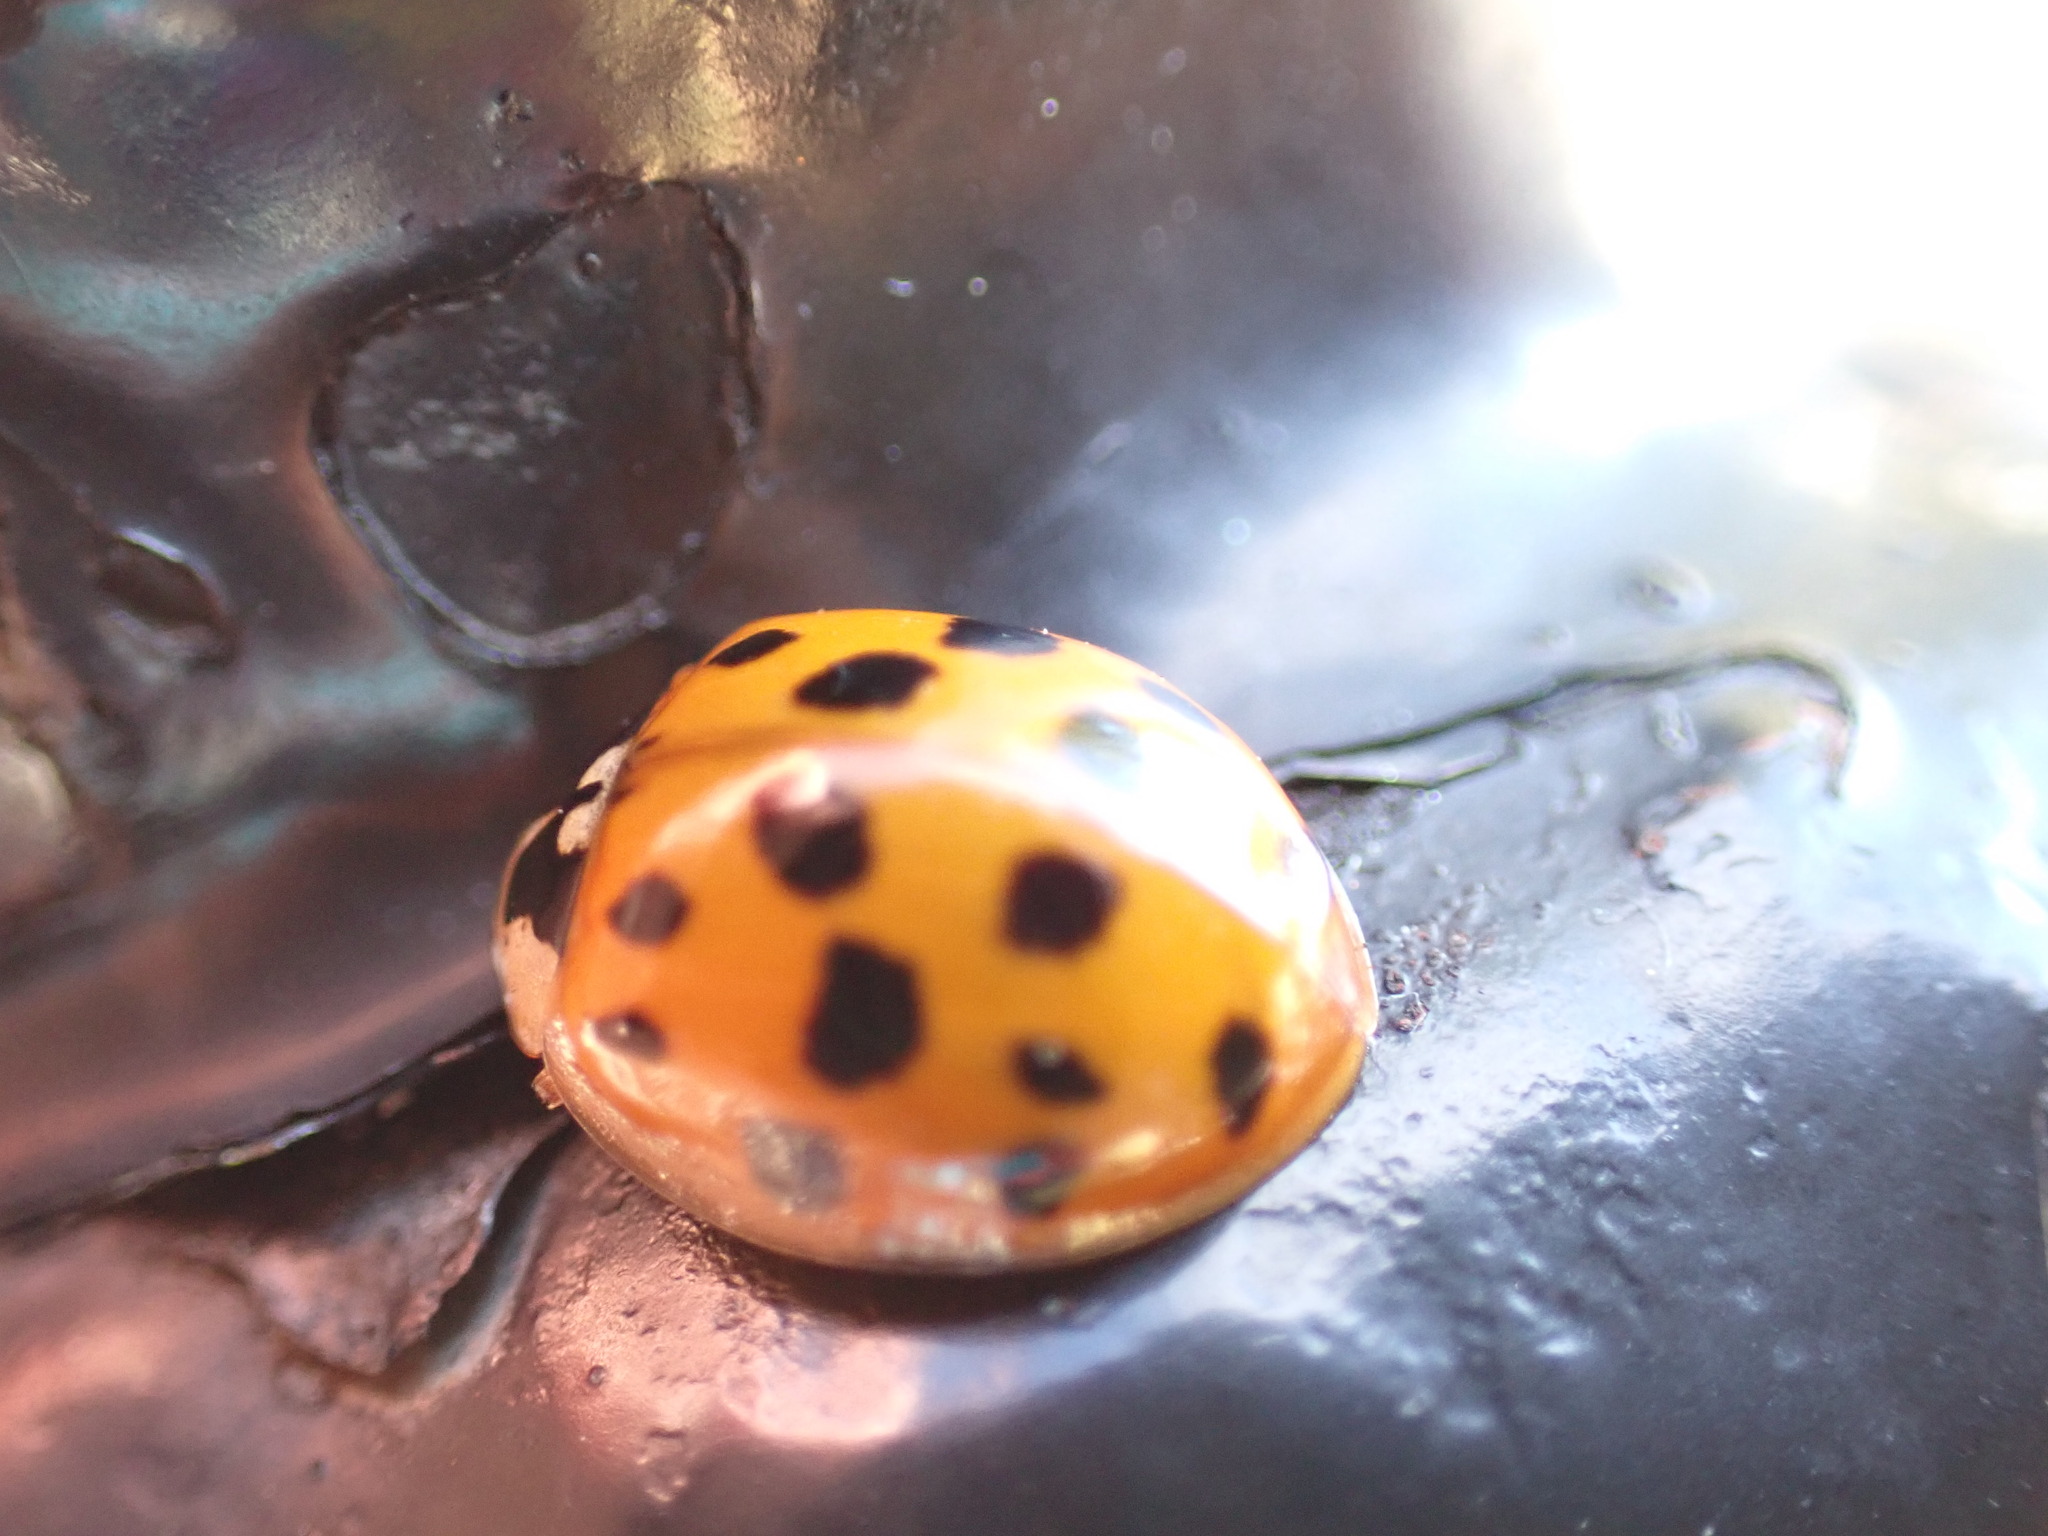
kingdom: Animalia
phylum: Arthropoda
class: Insecta
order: Coleoptera
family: Coccinellidae
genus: Harmonia
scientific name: Harmonia axyridis
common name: Harlequin ladybird
